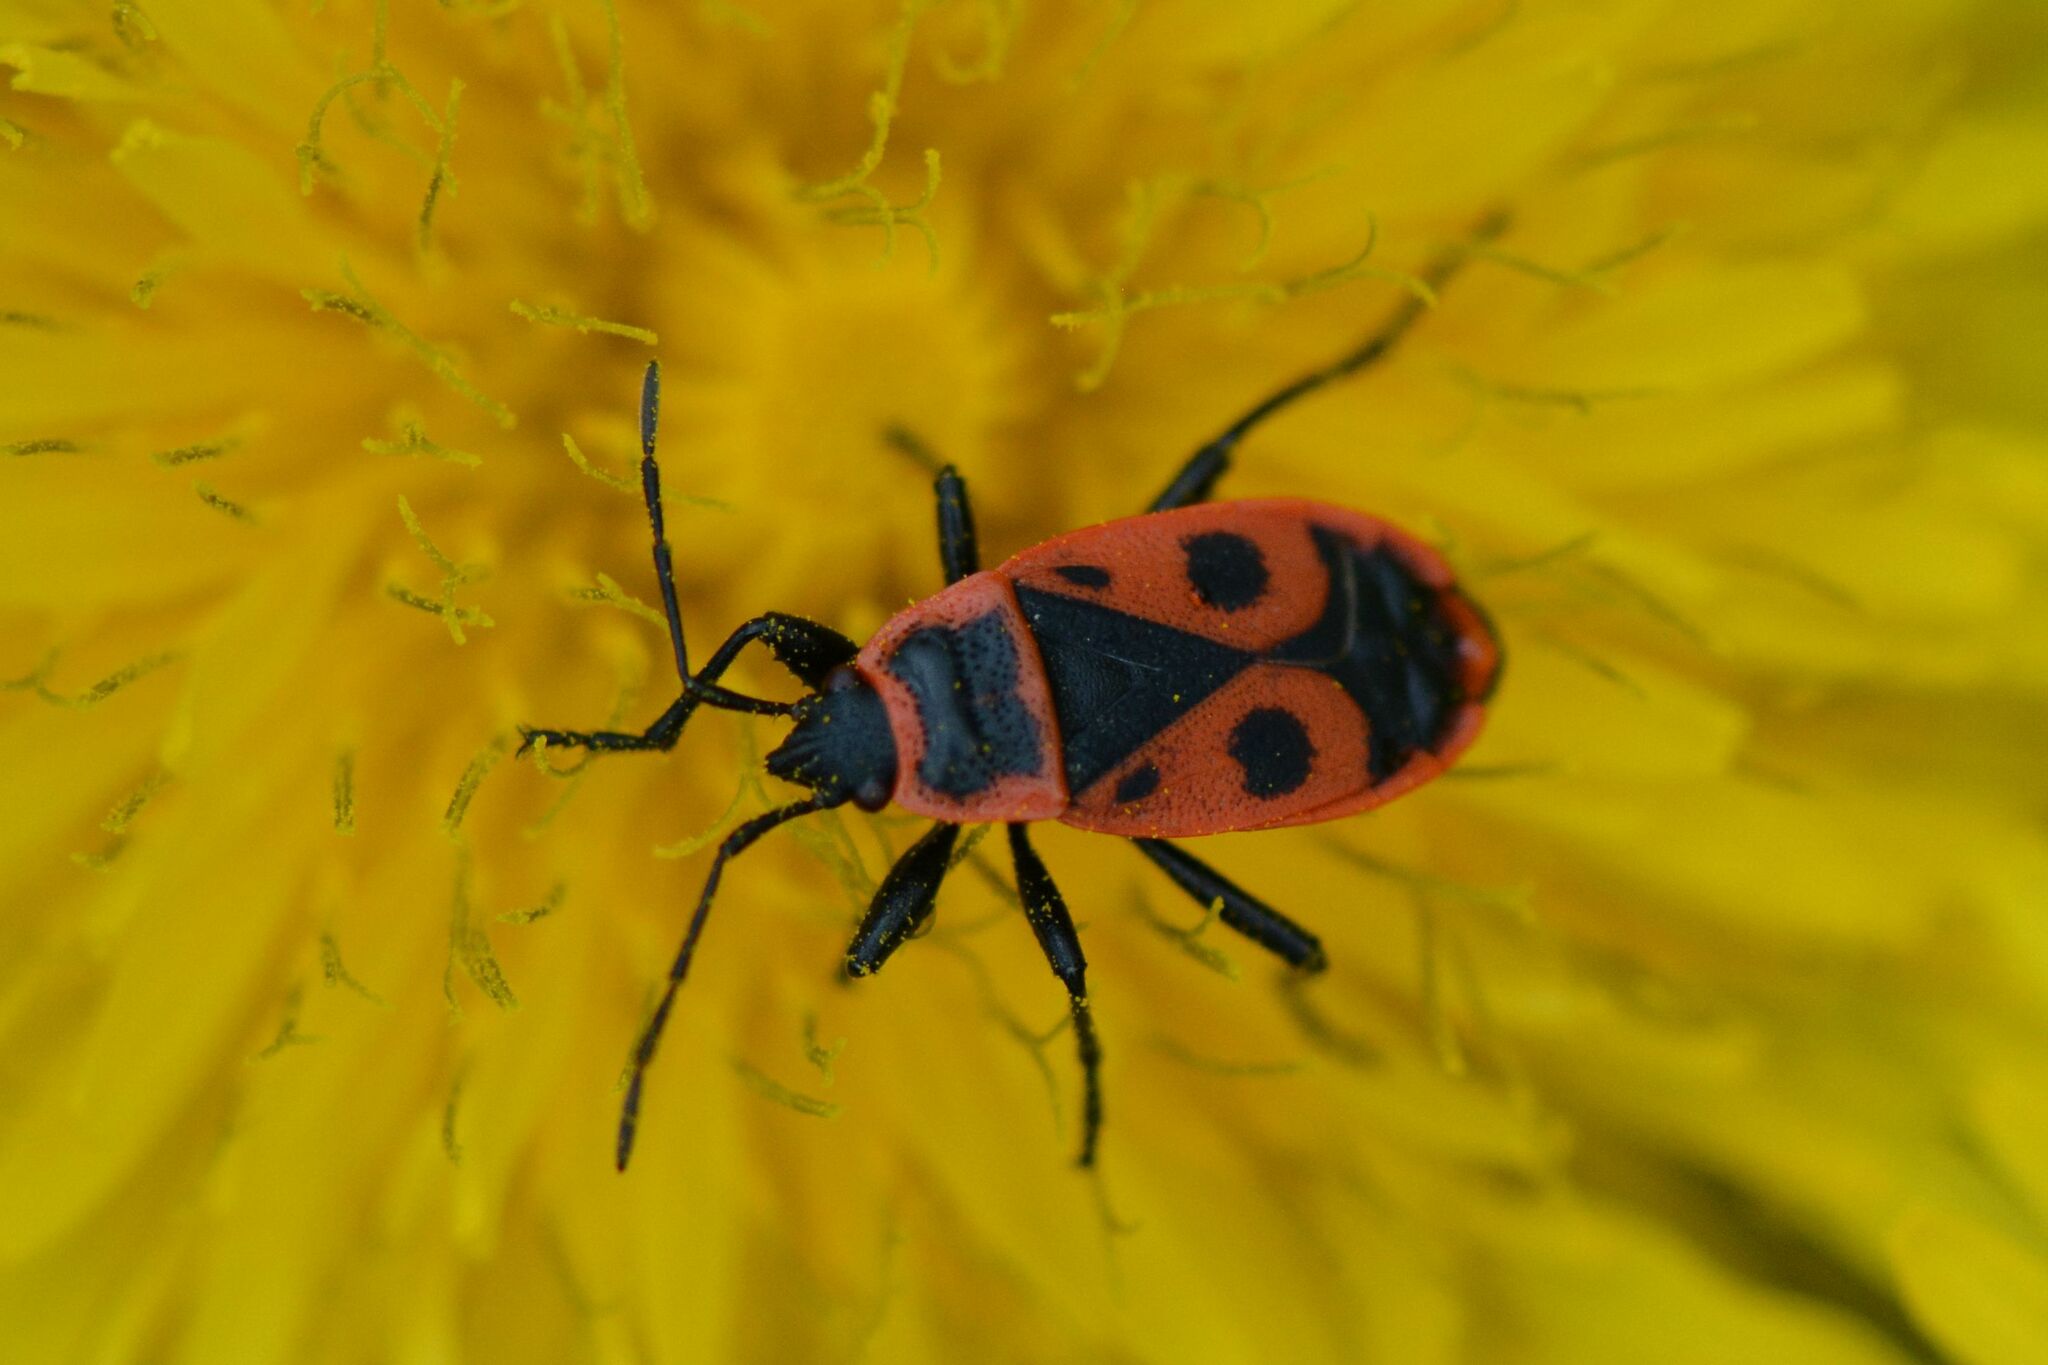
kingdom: Animalia
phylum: Arthropoda
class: Insecta
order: Hemiptera
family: Pyrrhocoridae
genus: Pyrrhocoris
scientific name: Pyrrhocoris apterus
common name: Firebug
